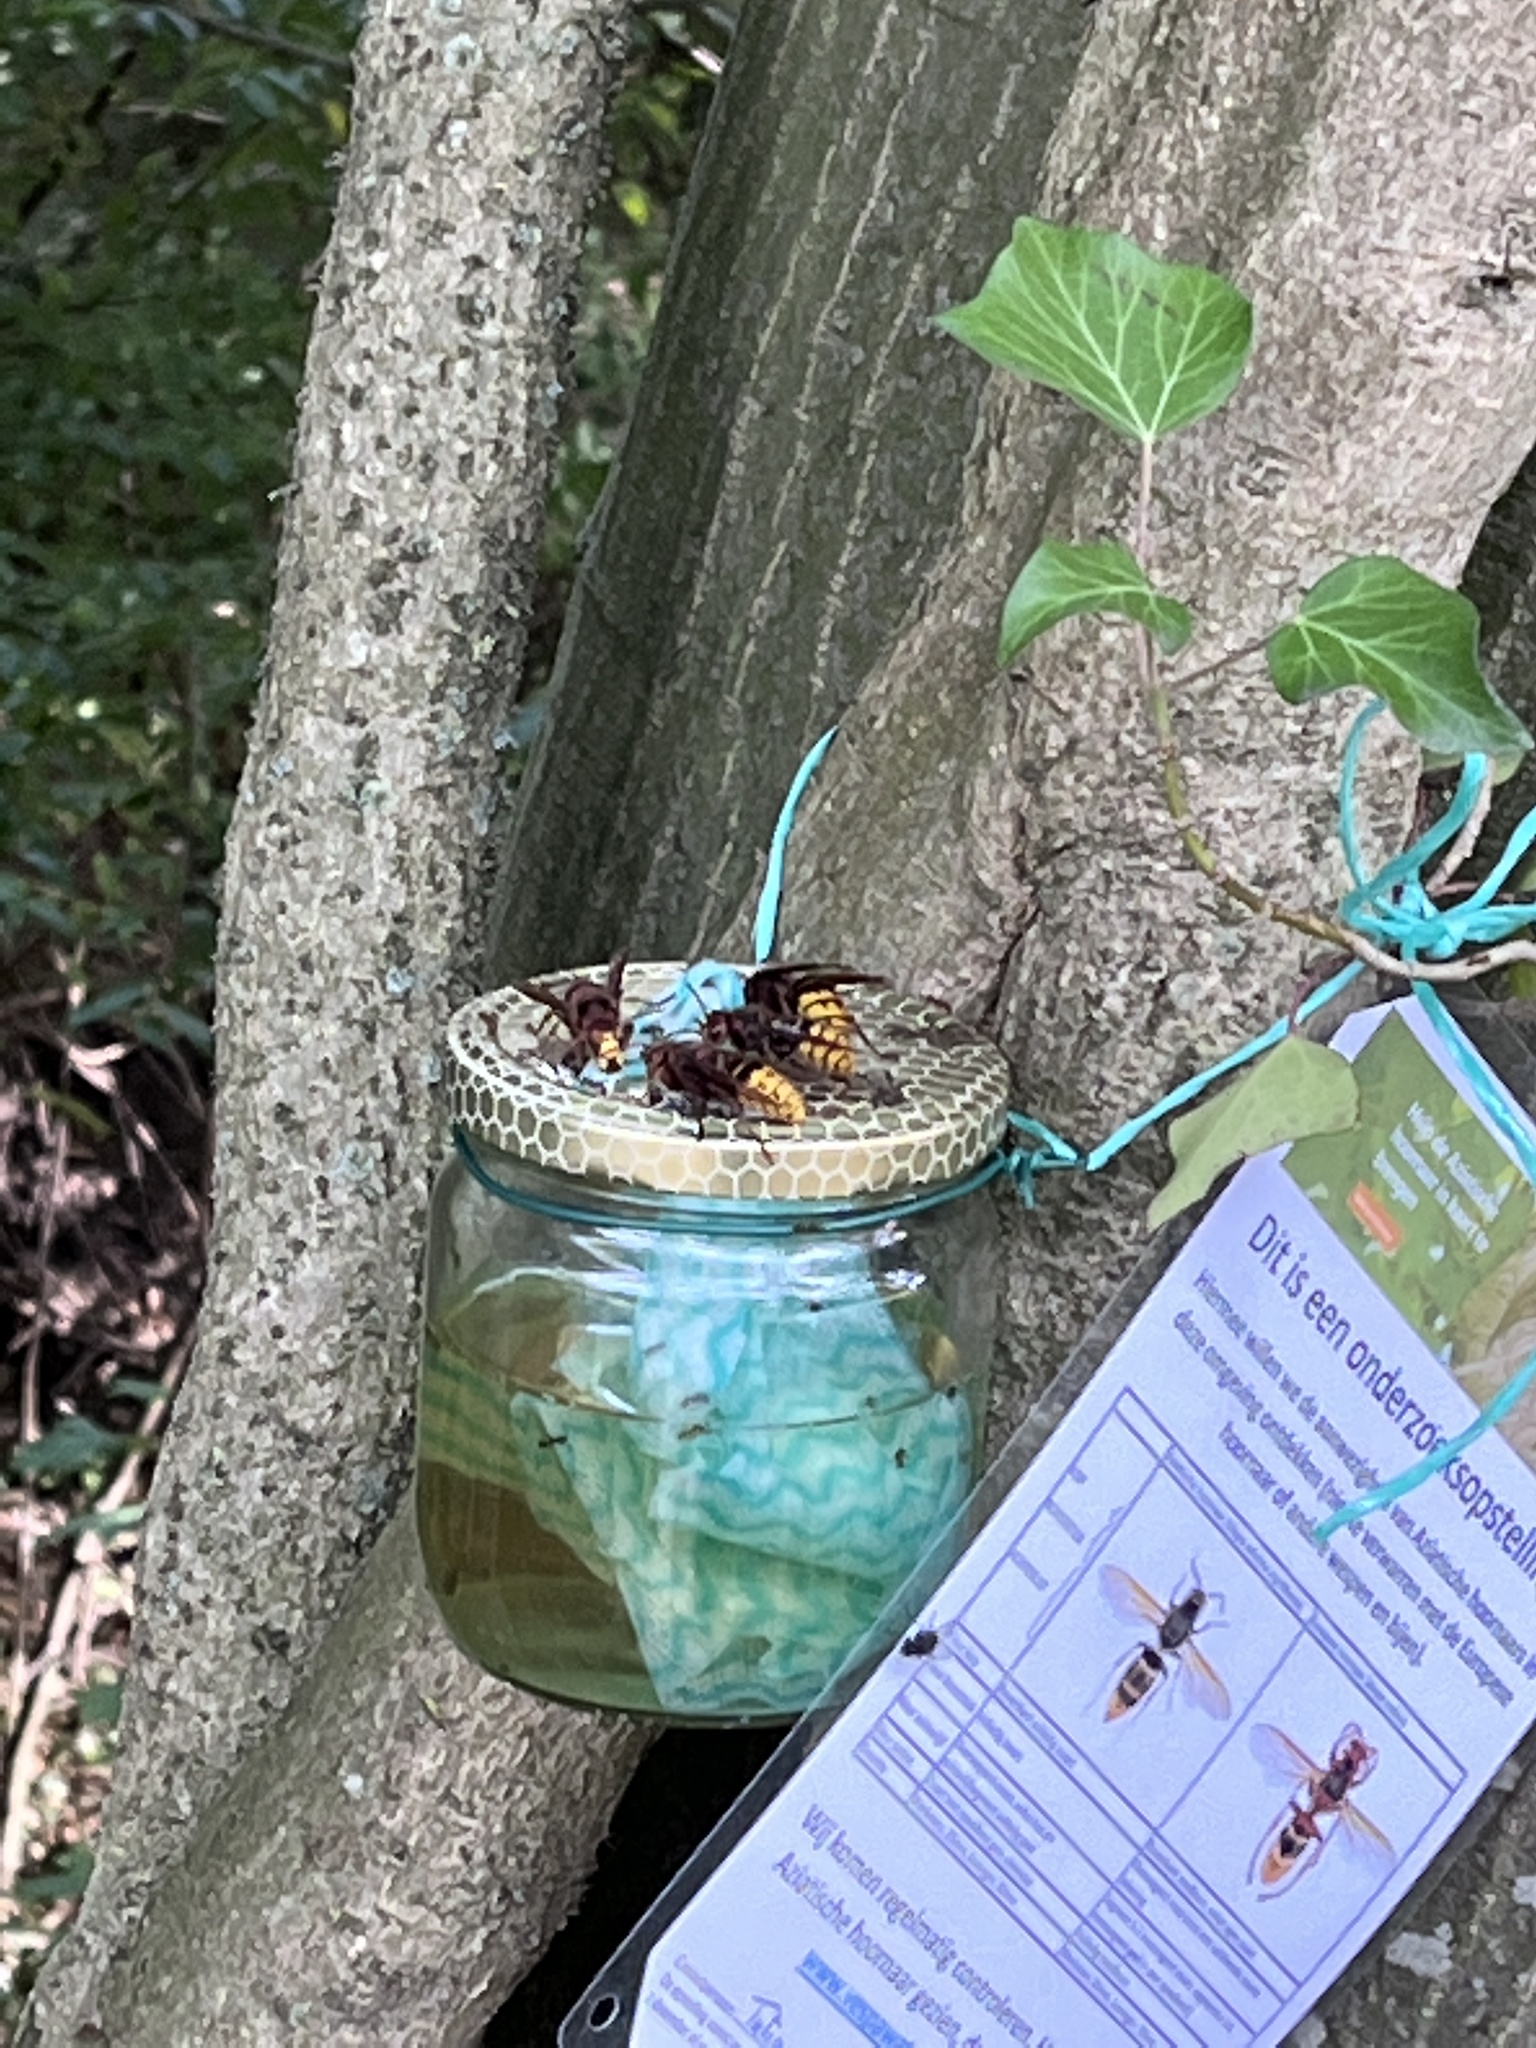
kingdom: Animalia
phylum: Arthropoda
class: Insecta
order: Hymenoptera
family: Vespidae
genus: Vespa
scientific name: Vespa crabro
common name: Hornet
